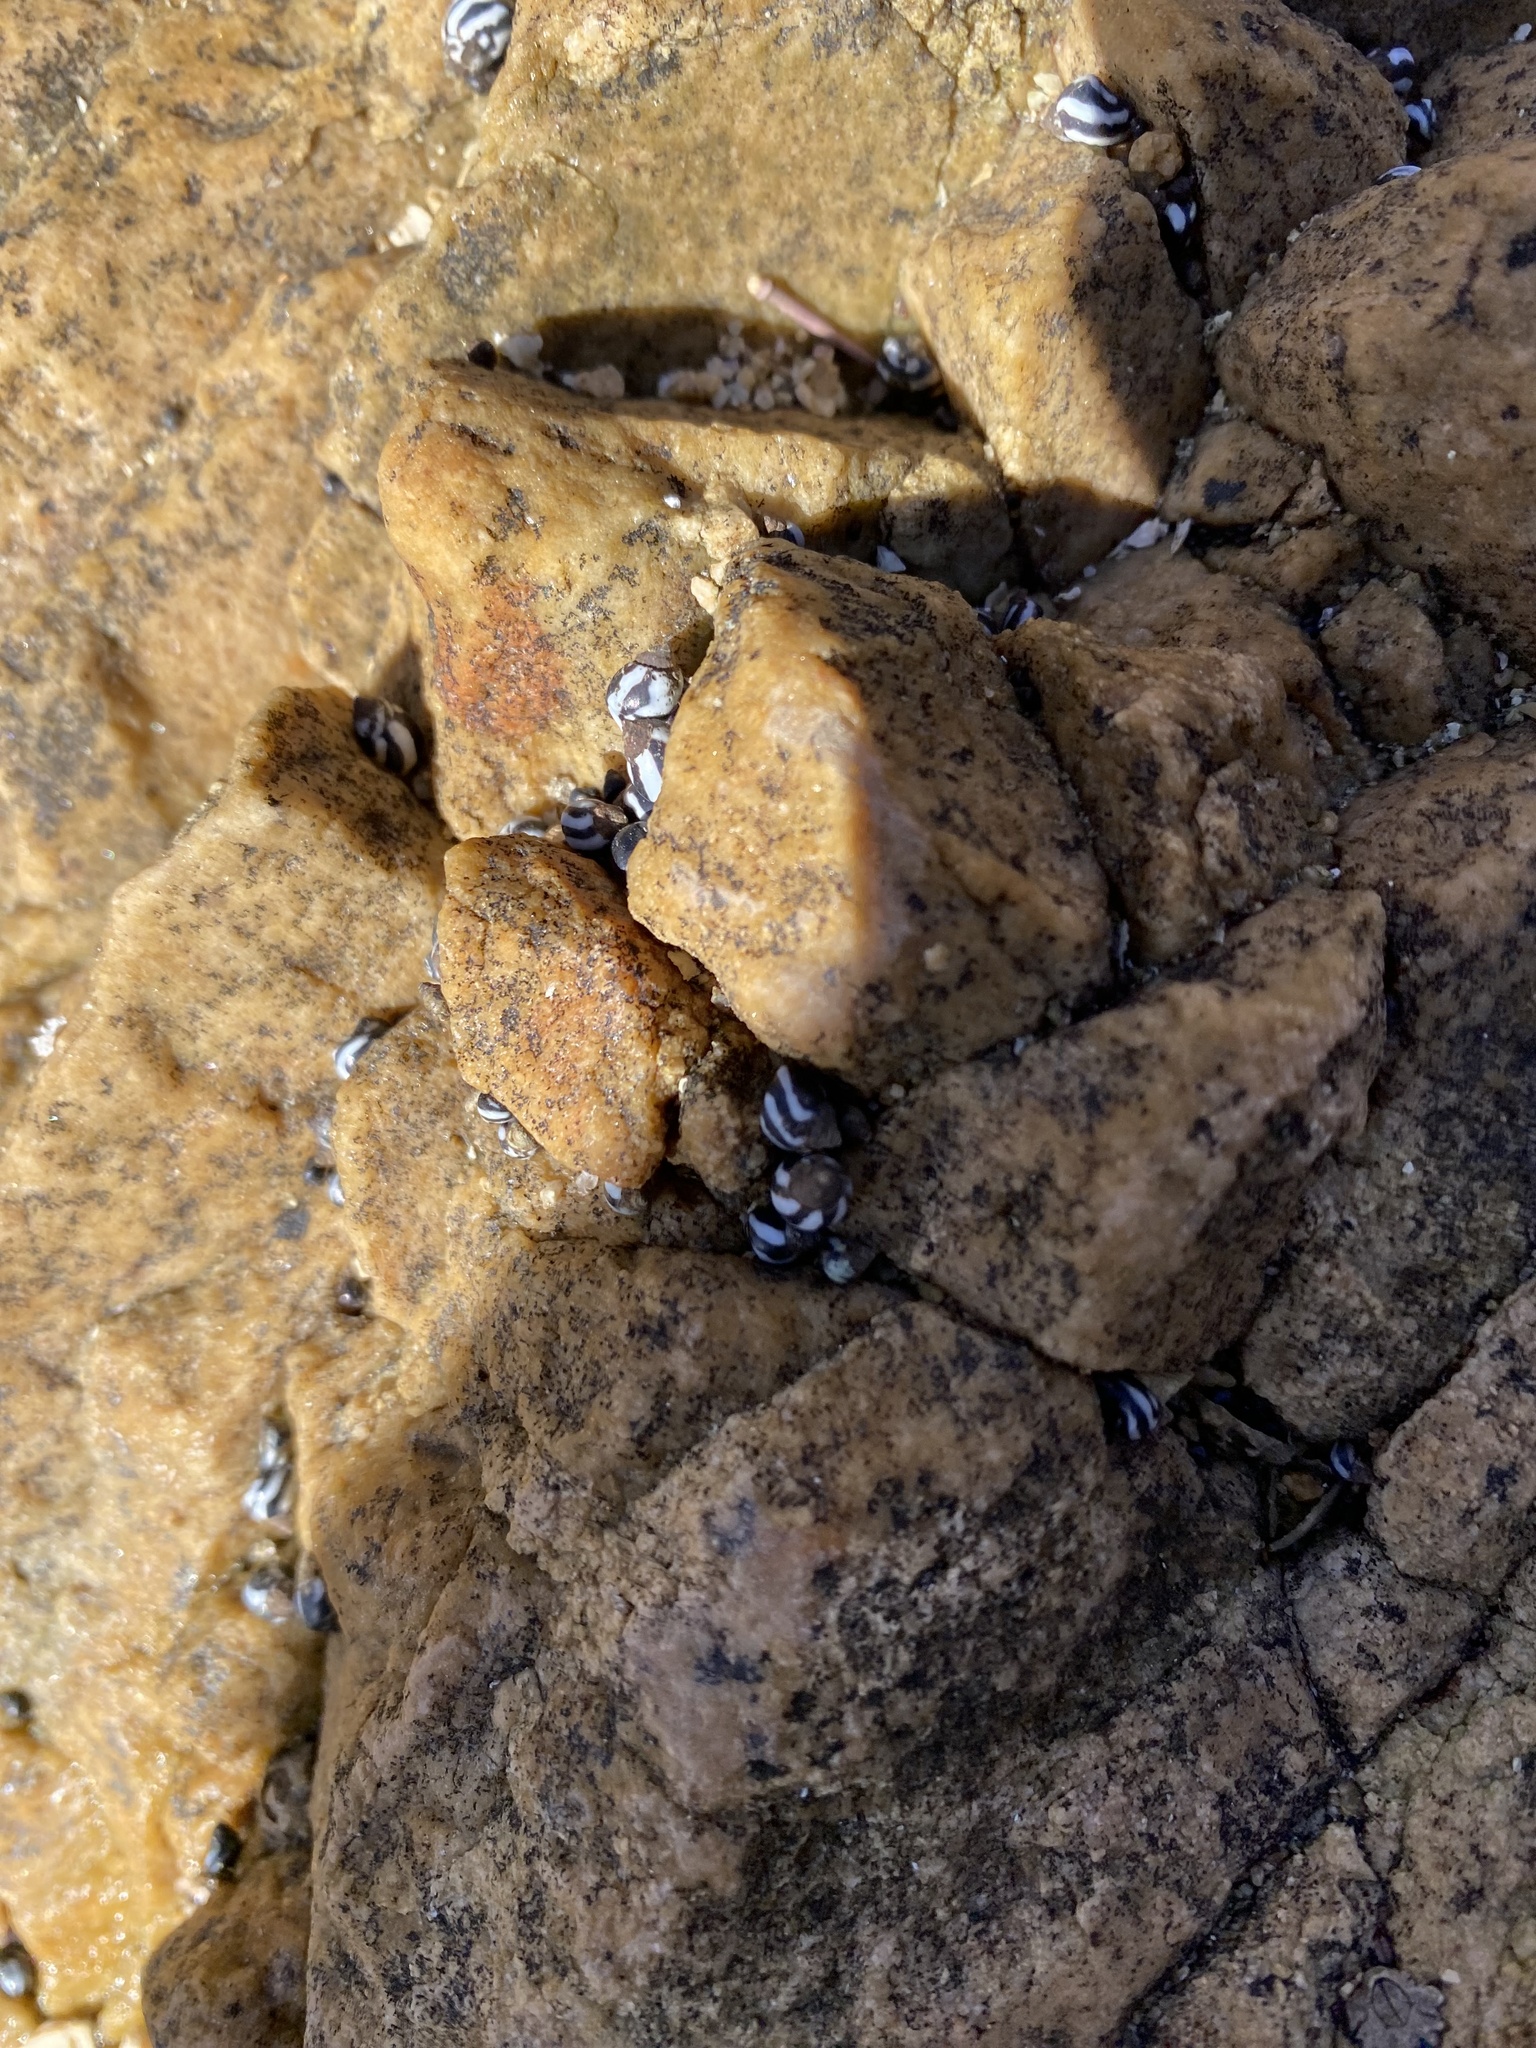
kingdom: Animalia
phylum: Mollusca
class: Gastropoda
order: Littorinimorpha
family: Littorinidae
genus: Echinolittorina
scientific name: Echinolittorina peruviana
